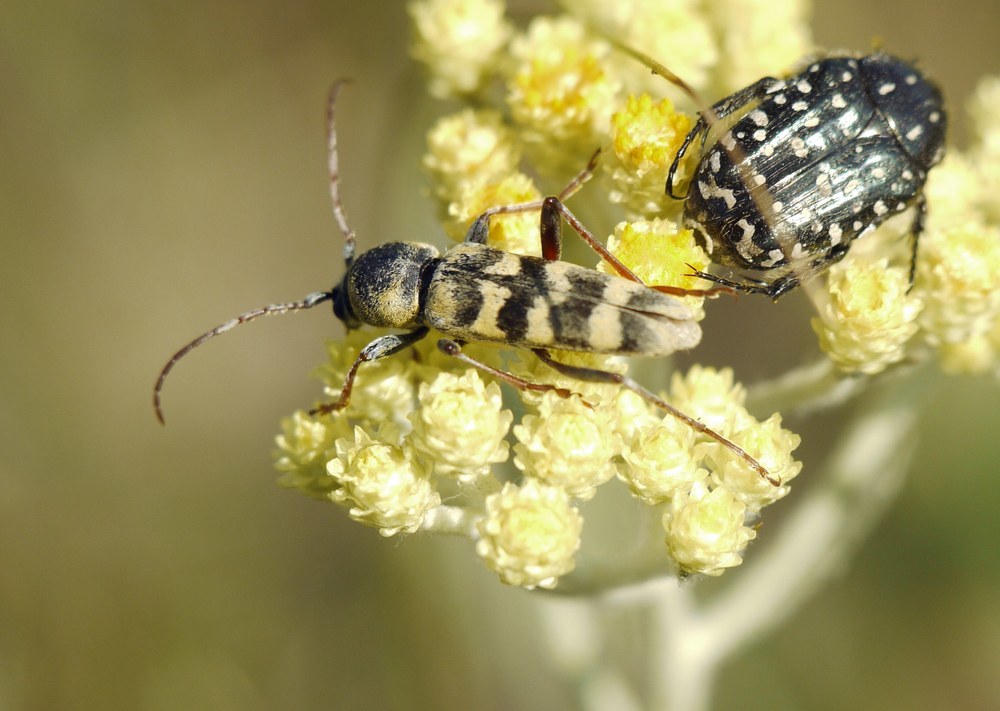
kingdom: Animalia
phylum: Arthropoda
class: Insecta
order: Coleoptera
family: Cerambycidae
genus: Plagionotus
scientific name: Plagionotus floralis
